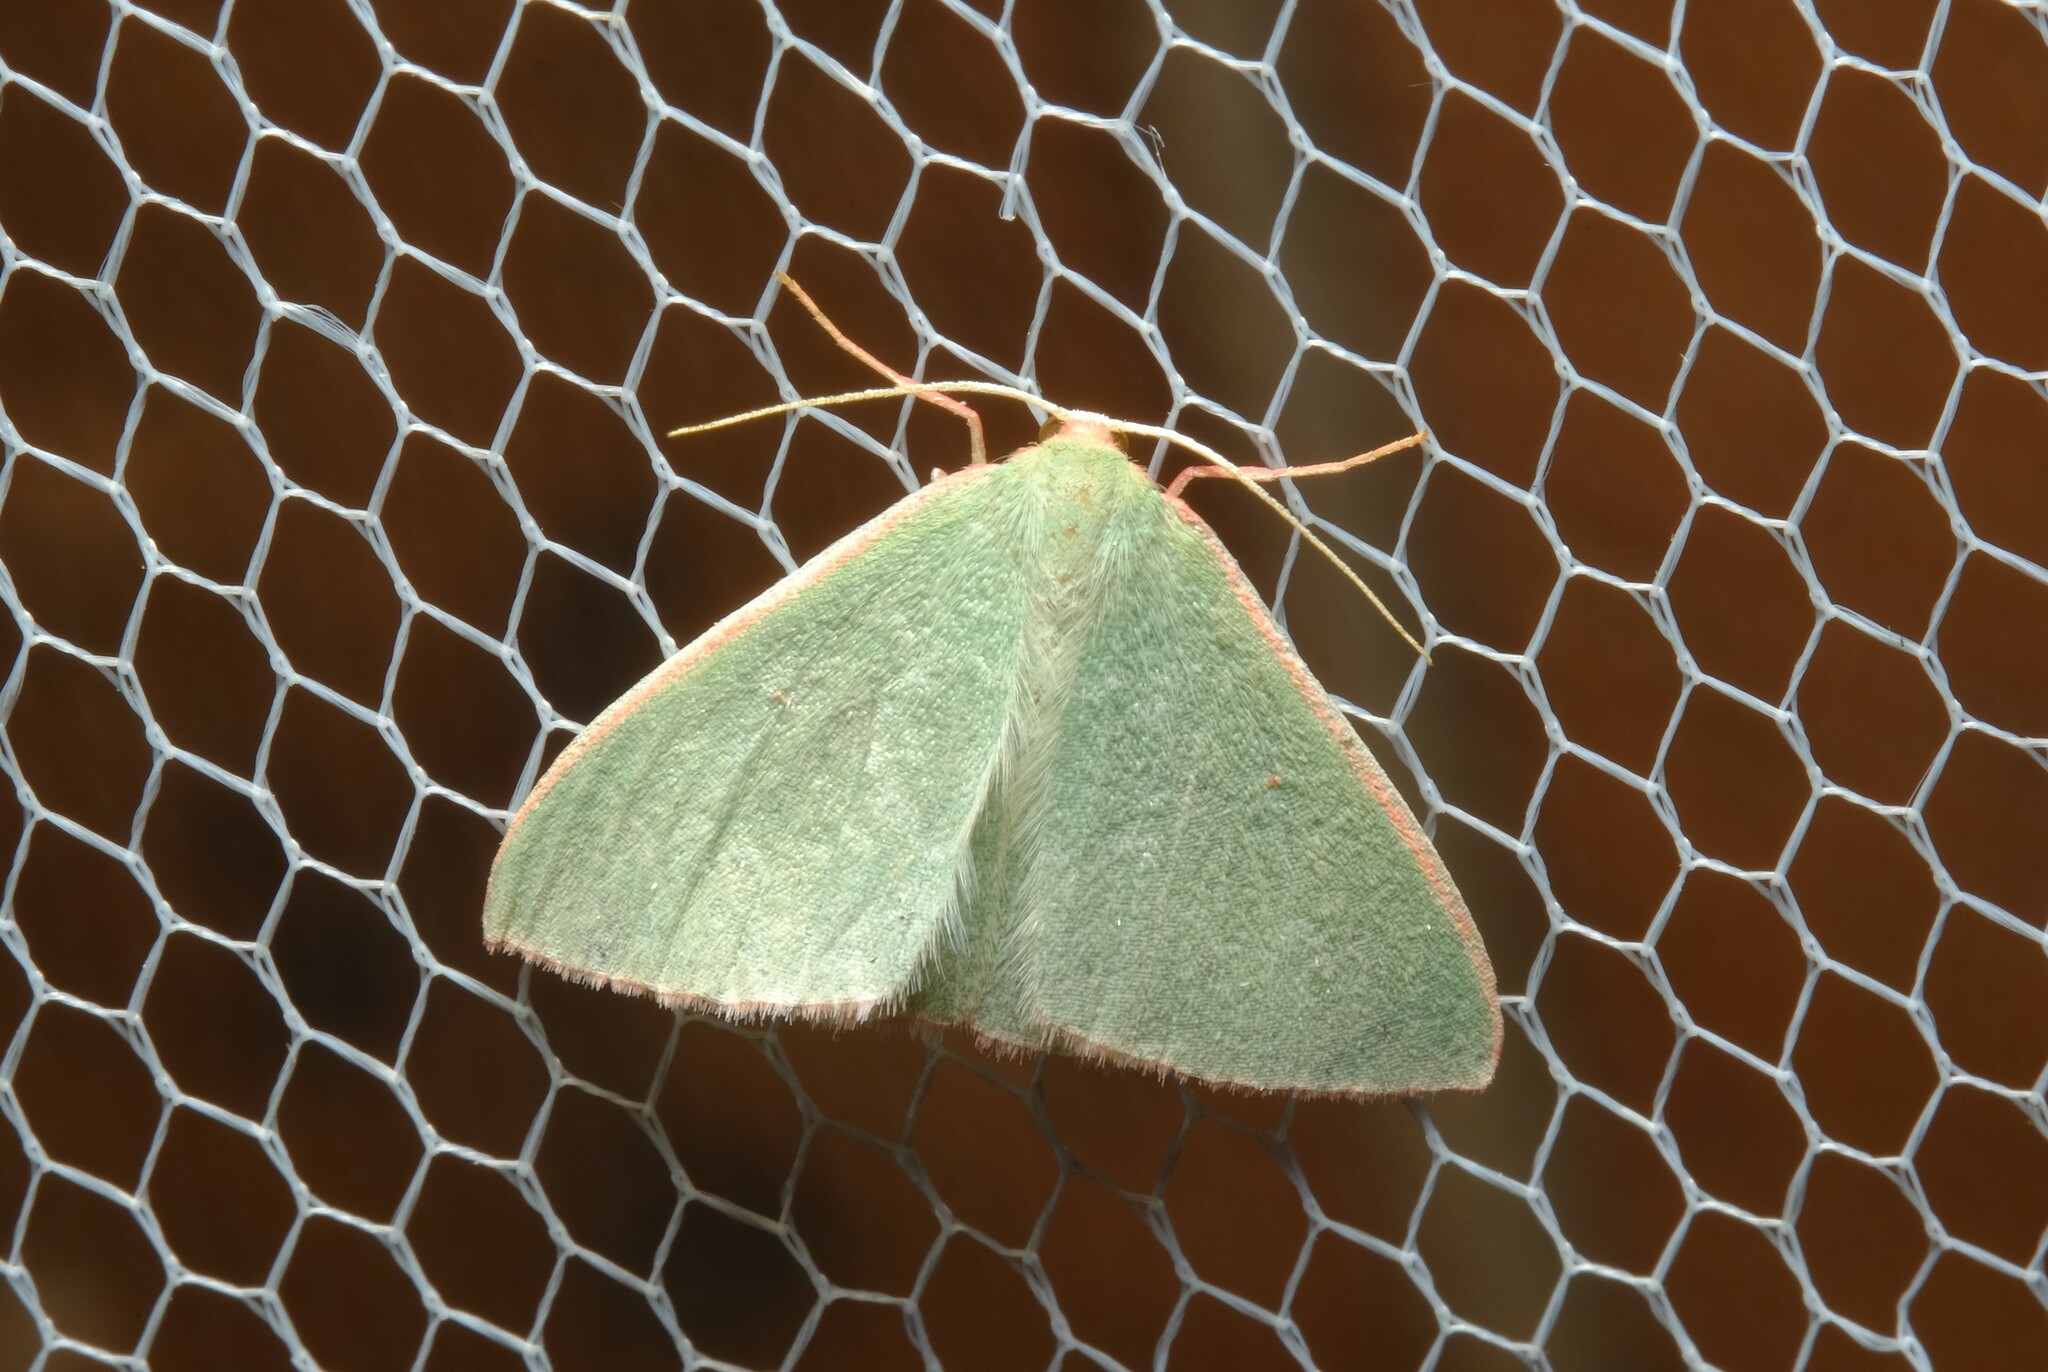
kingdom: Animalia
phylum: Arthropoda
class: Insecta
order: Lepidoptera
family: Geometridae
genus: Chlorocoma
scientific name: Chlorocoma cadmaria
